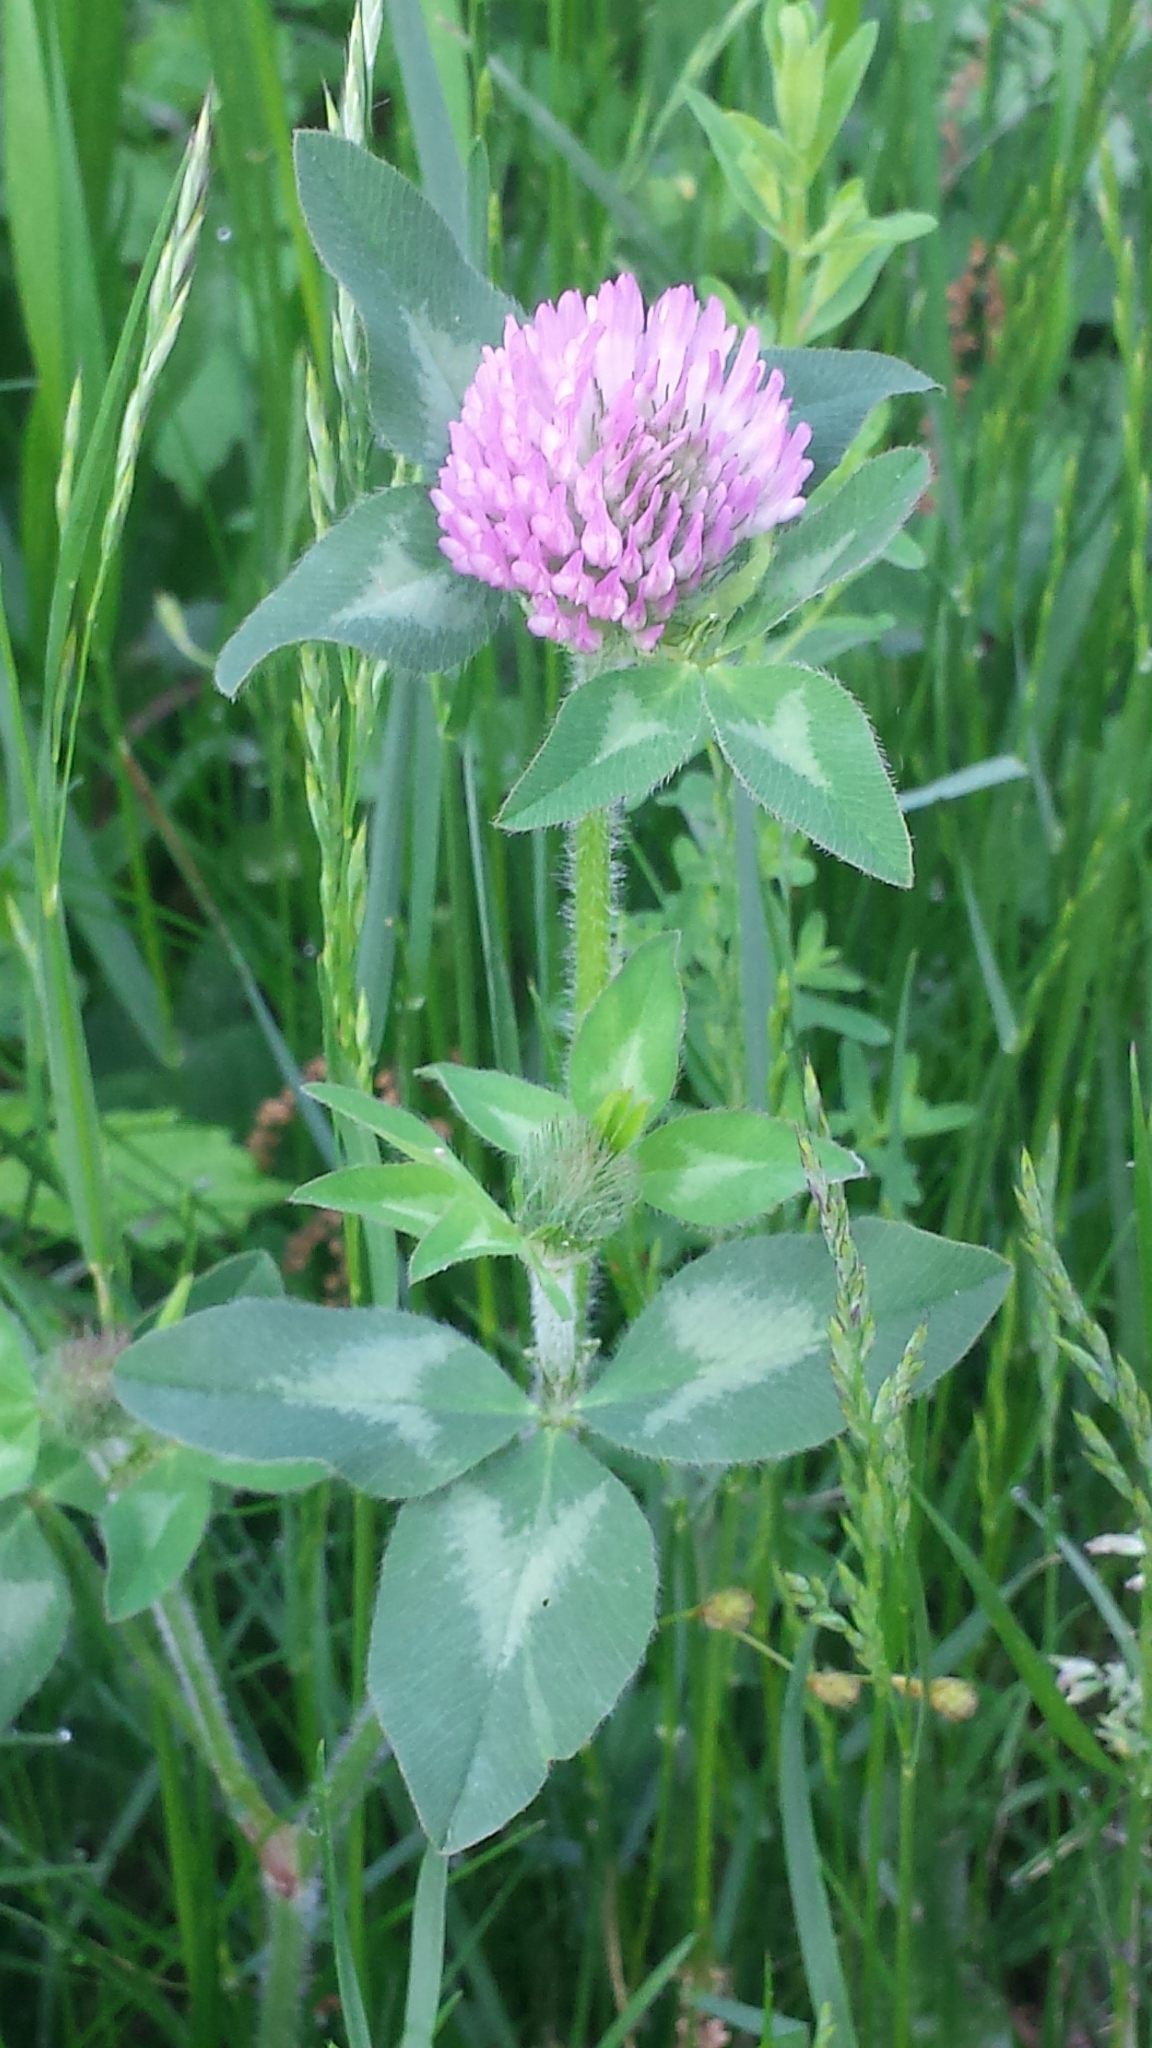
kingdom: Plantae
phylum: Tracheophyta
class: Magnoliopsida
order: Fabales
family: Fabaceae
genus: Trifolium
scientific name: Trifolium pratense
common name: Red clover
